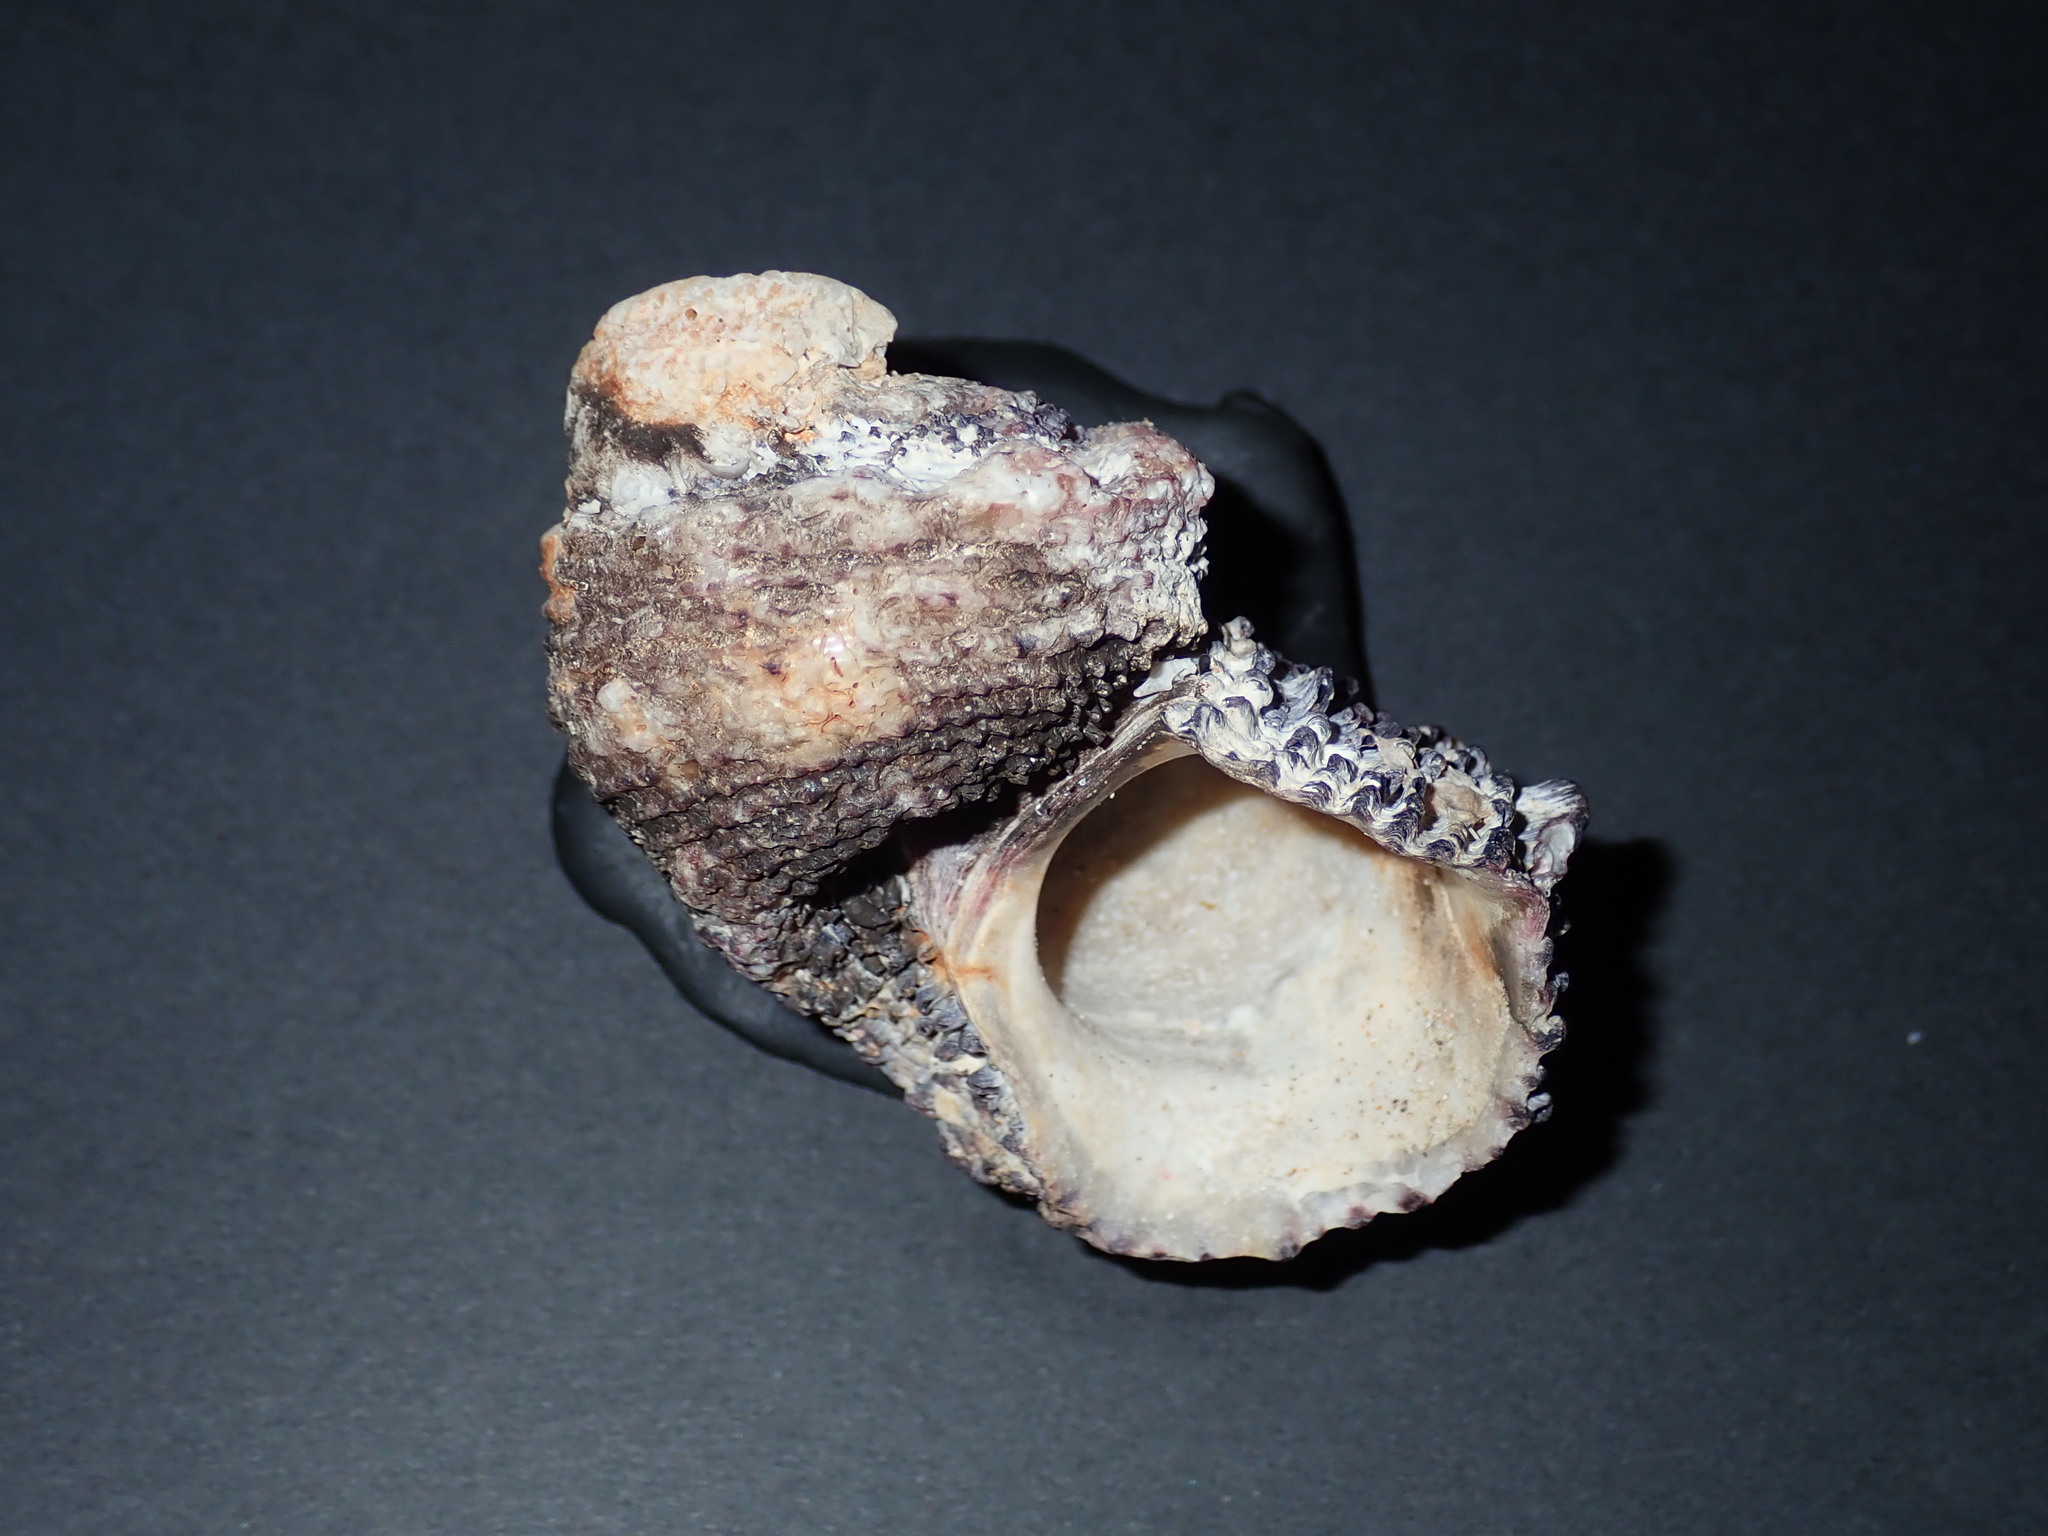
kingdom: Animalia
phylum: Mollusca
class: Gastropoda
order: Trochida
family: Angariidae
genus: Angaria
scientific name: Angaria delphinus
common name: Dolphin shell
